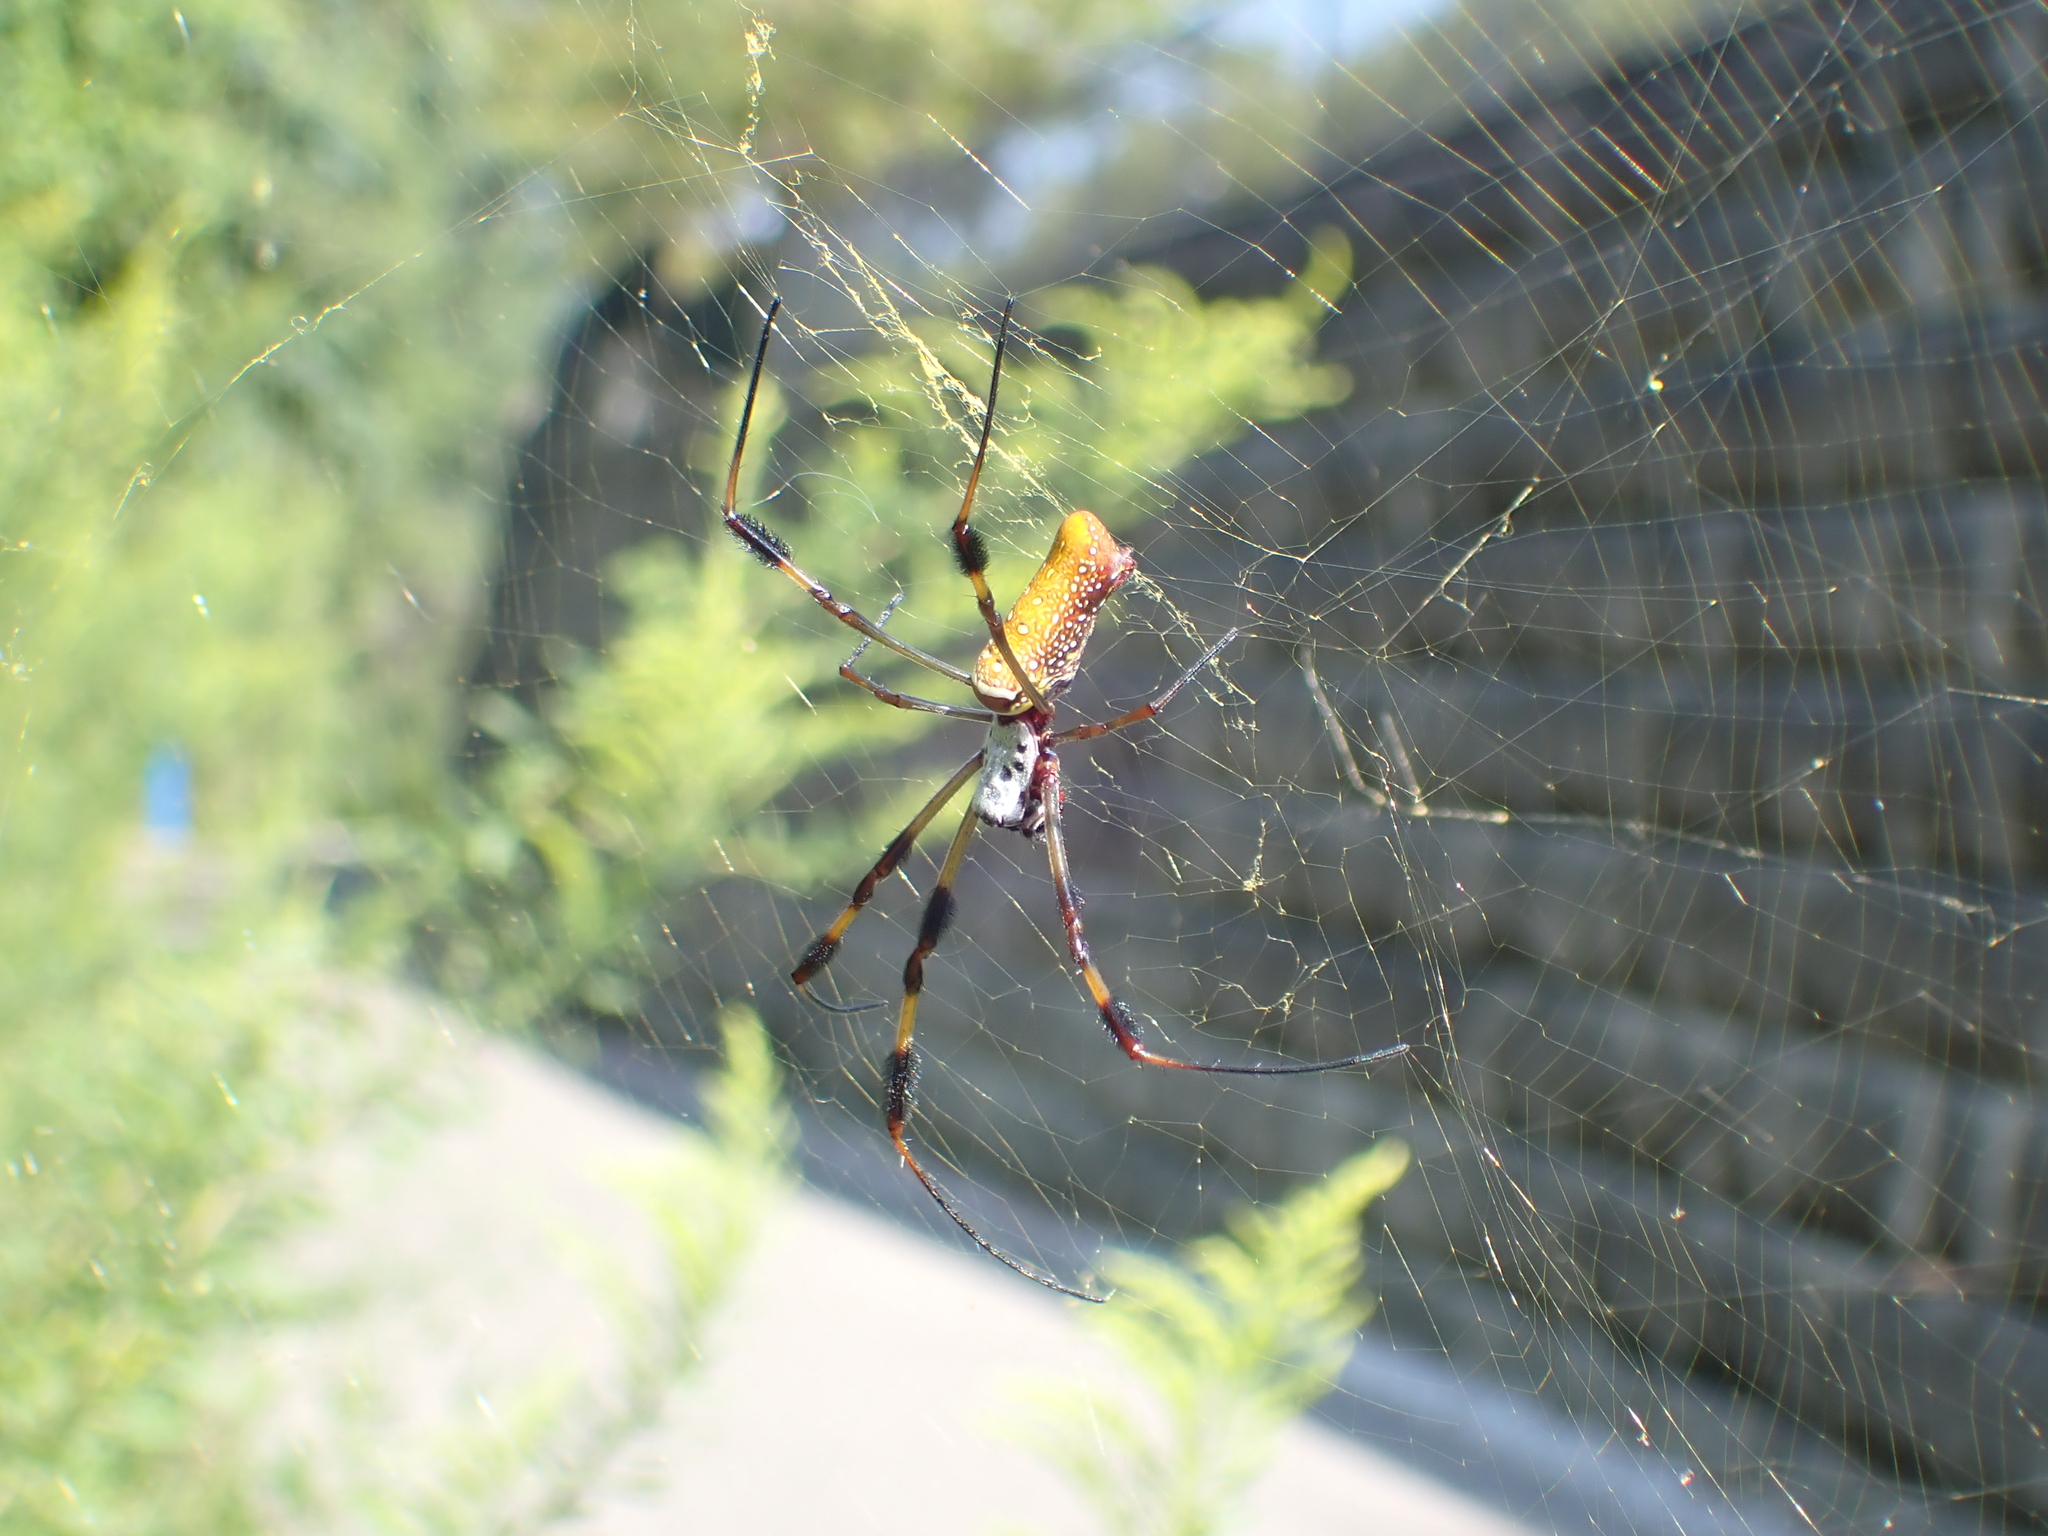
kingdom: Animalia
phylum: Arthropoda
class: Arachnida
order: Araneae
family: Araneidae
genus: Trichonephila
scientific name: Trichonephila clavipes
